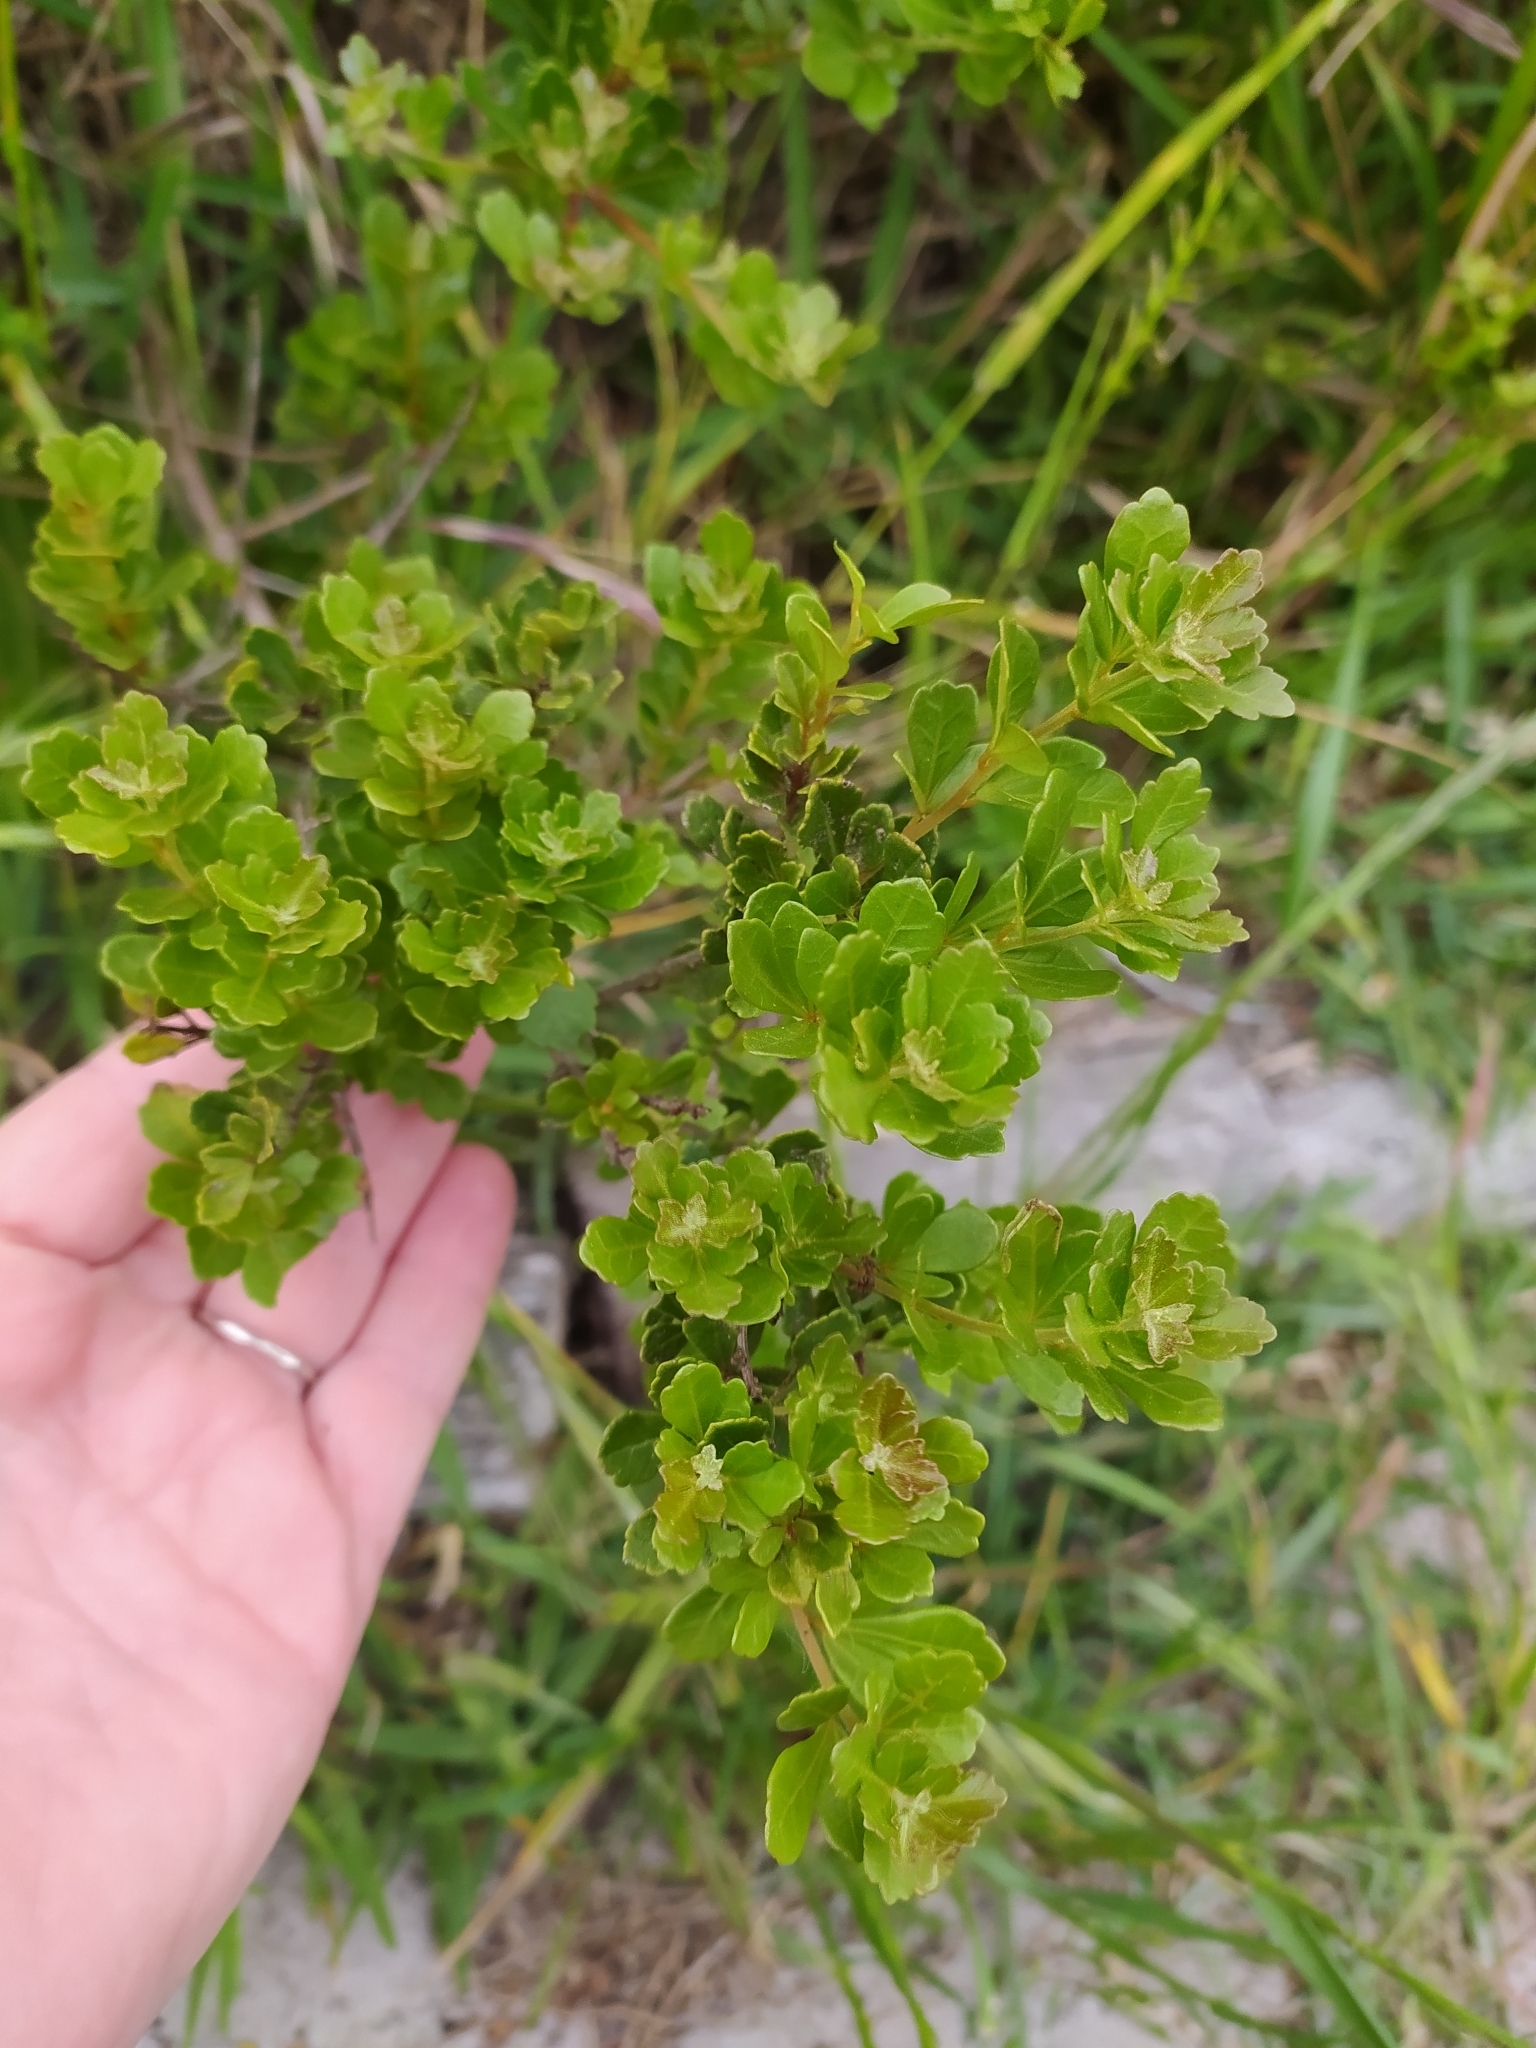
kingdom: Plantae
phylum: Tracheophyta
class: Magnoliopsida
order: Sapindales
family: Anacardiaceae
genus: Searsia
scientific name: Searsia crenata
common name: Crowberry
